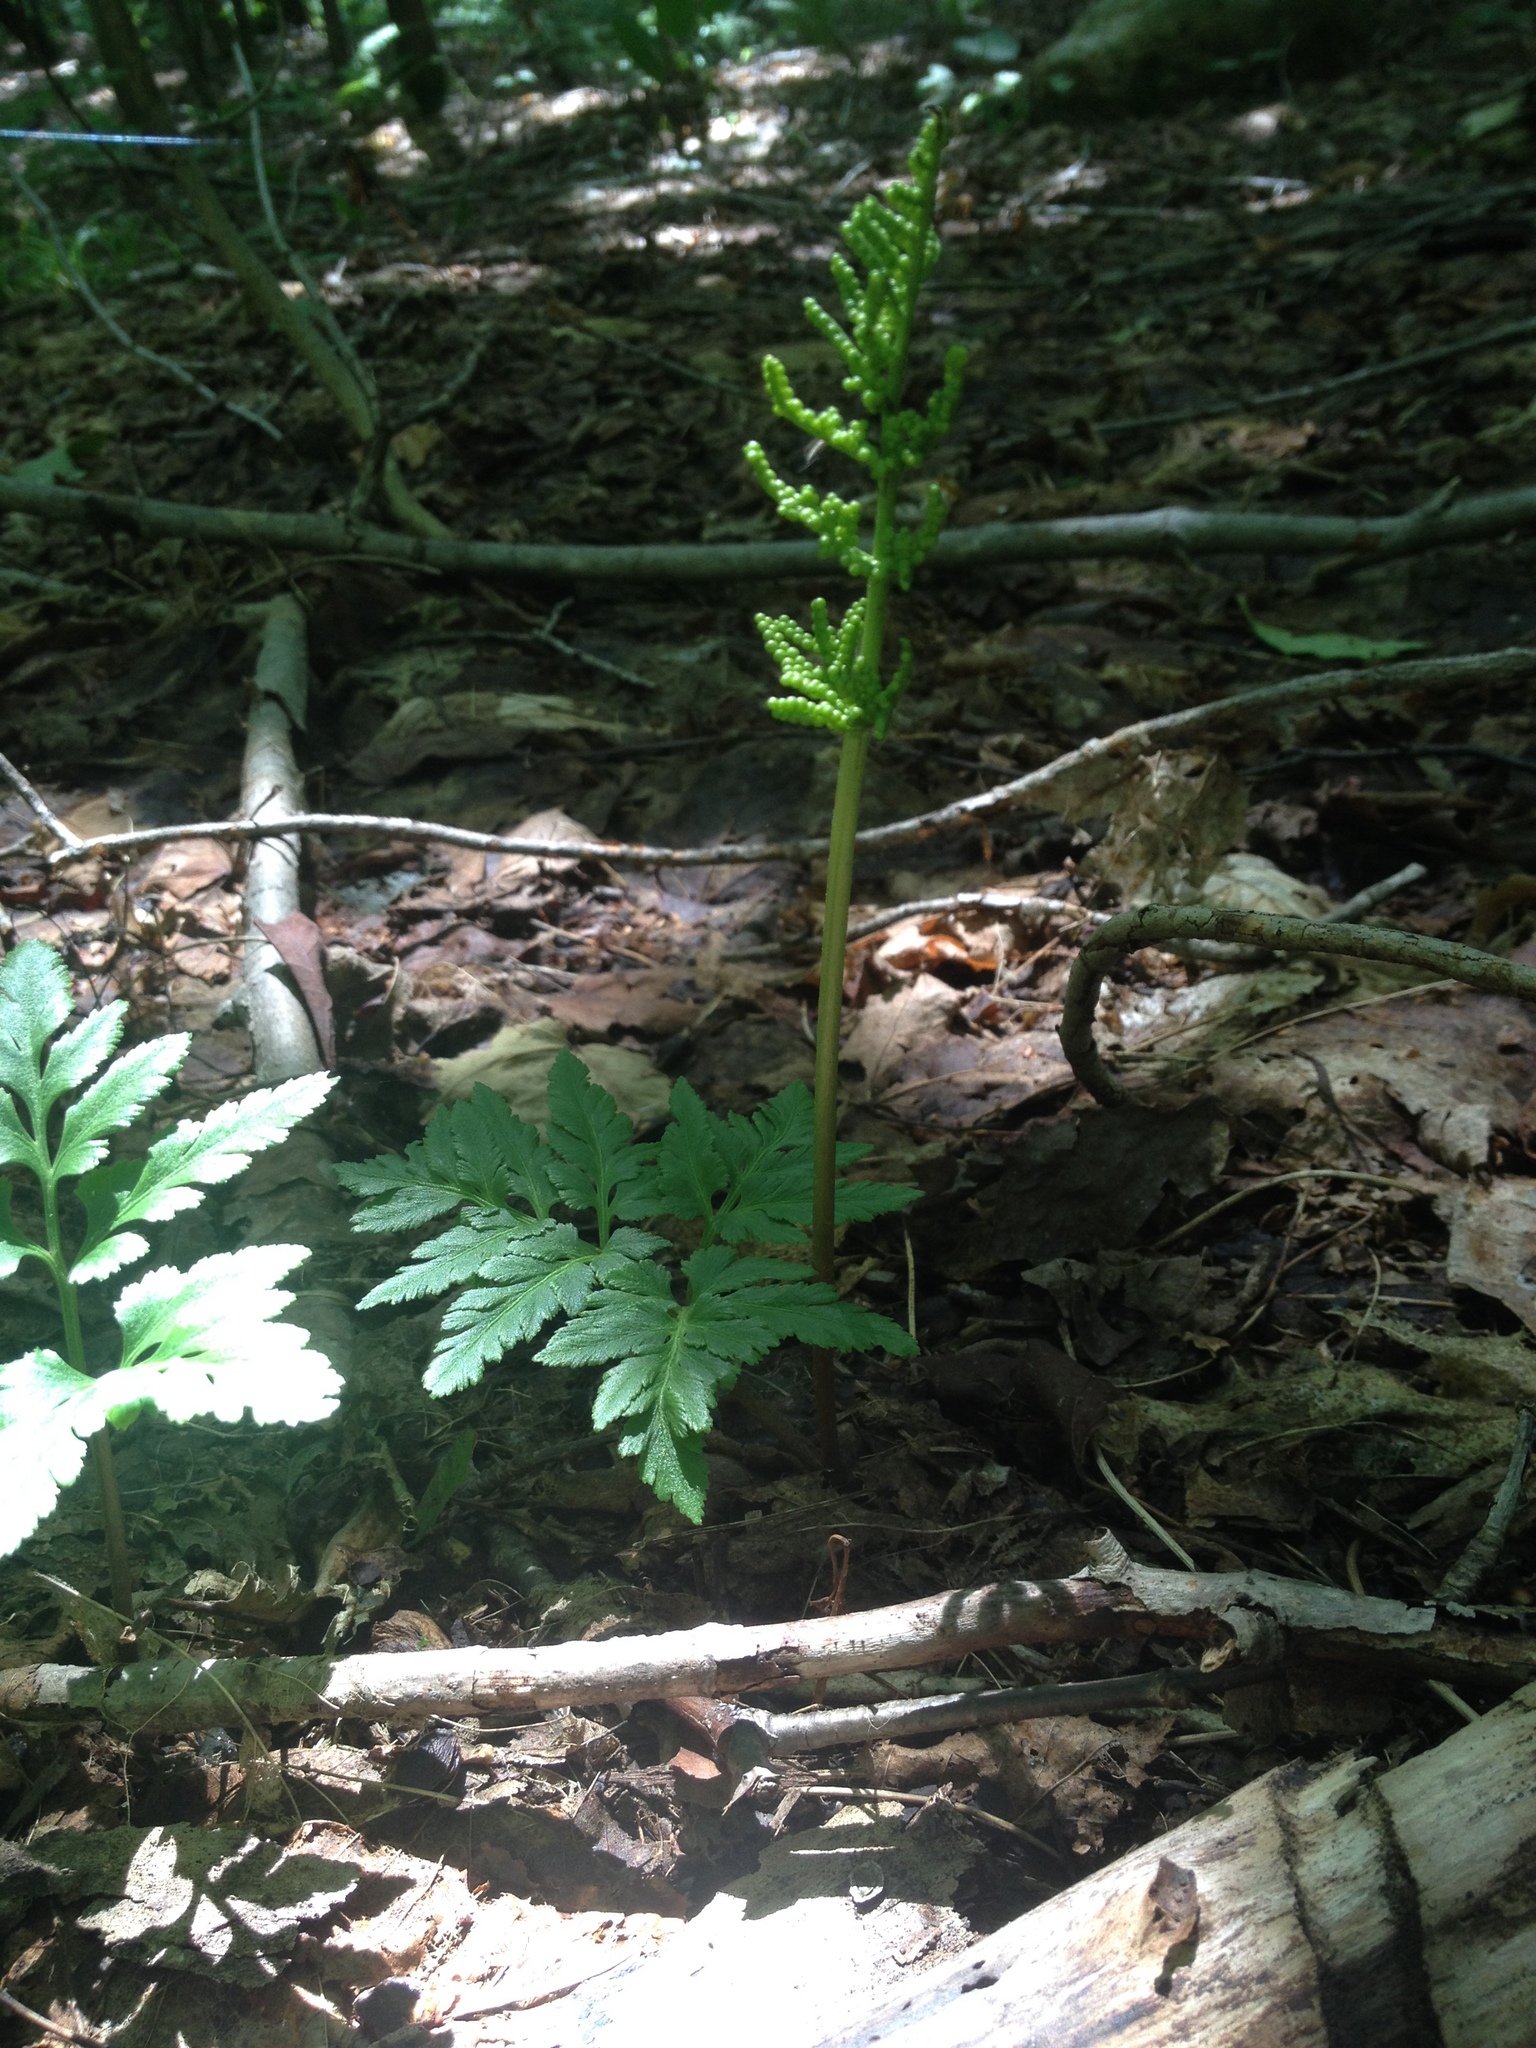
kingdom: Plantae
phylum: Tracheophyta
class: Polypodiopsida
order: Ophioglossales
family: Ophioglossaceae
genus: Sceptridium
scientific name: Sceptridium dissectum
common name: Cut-leaved grapefern
